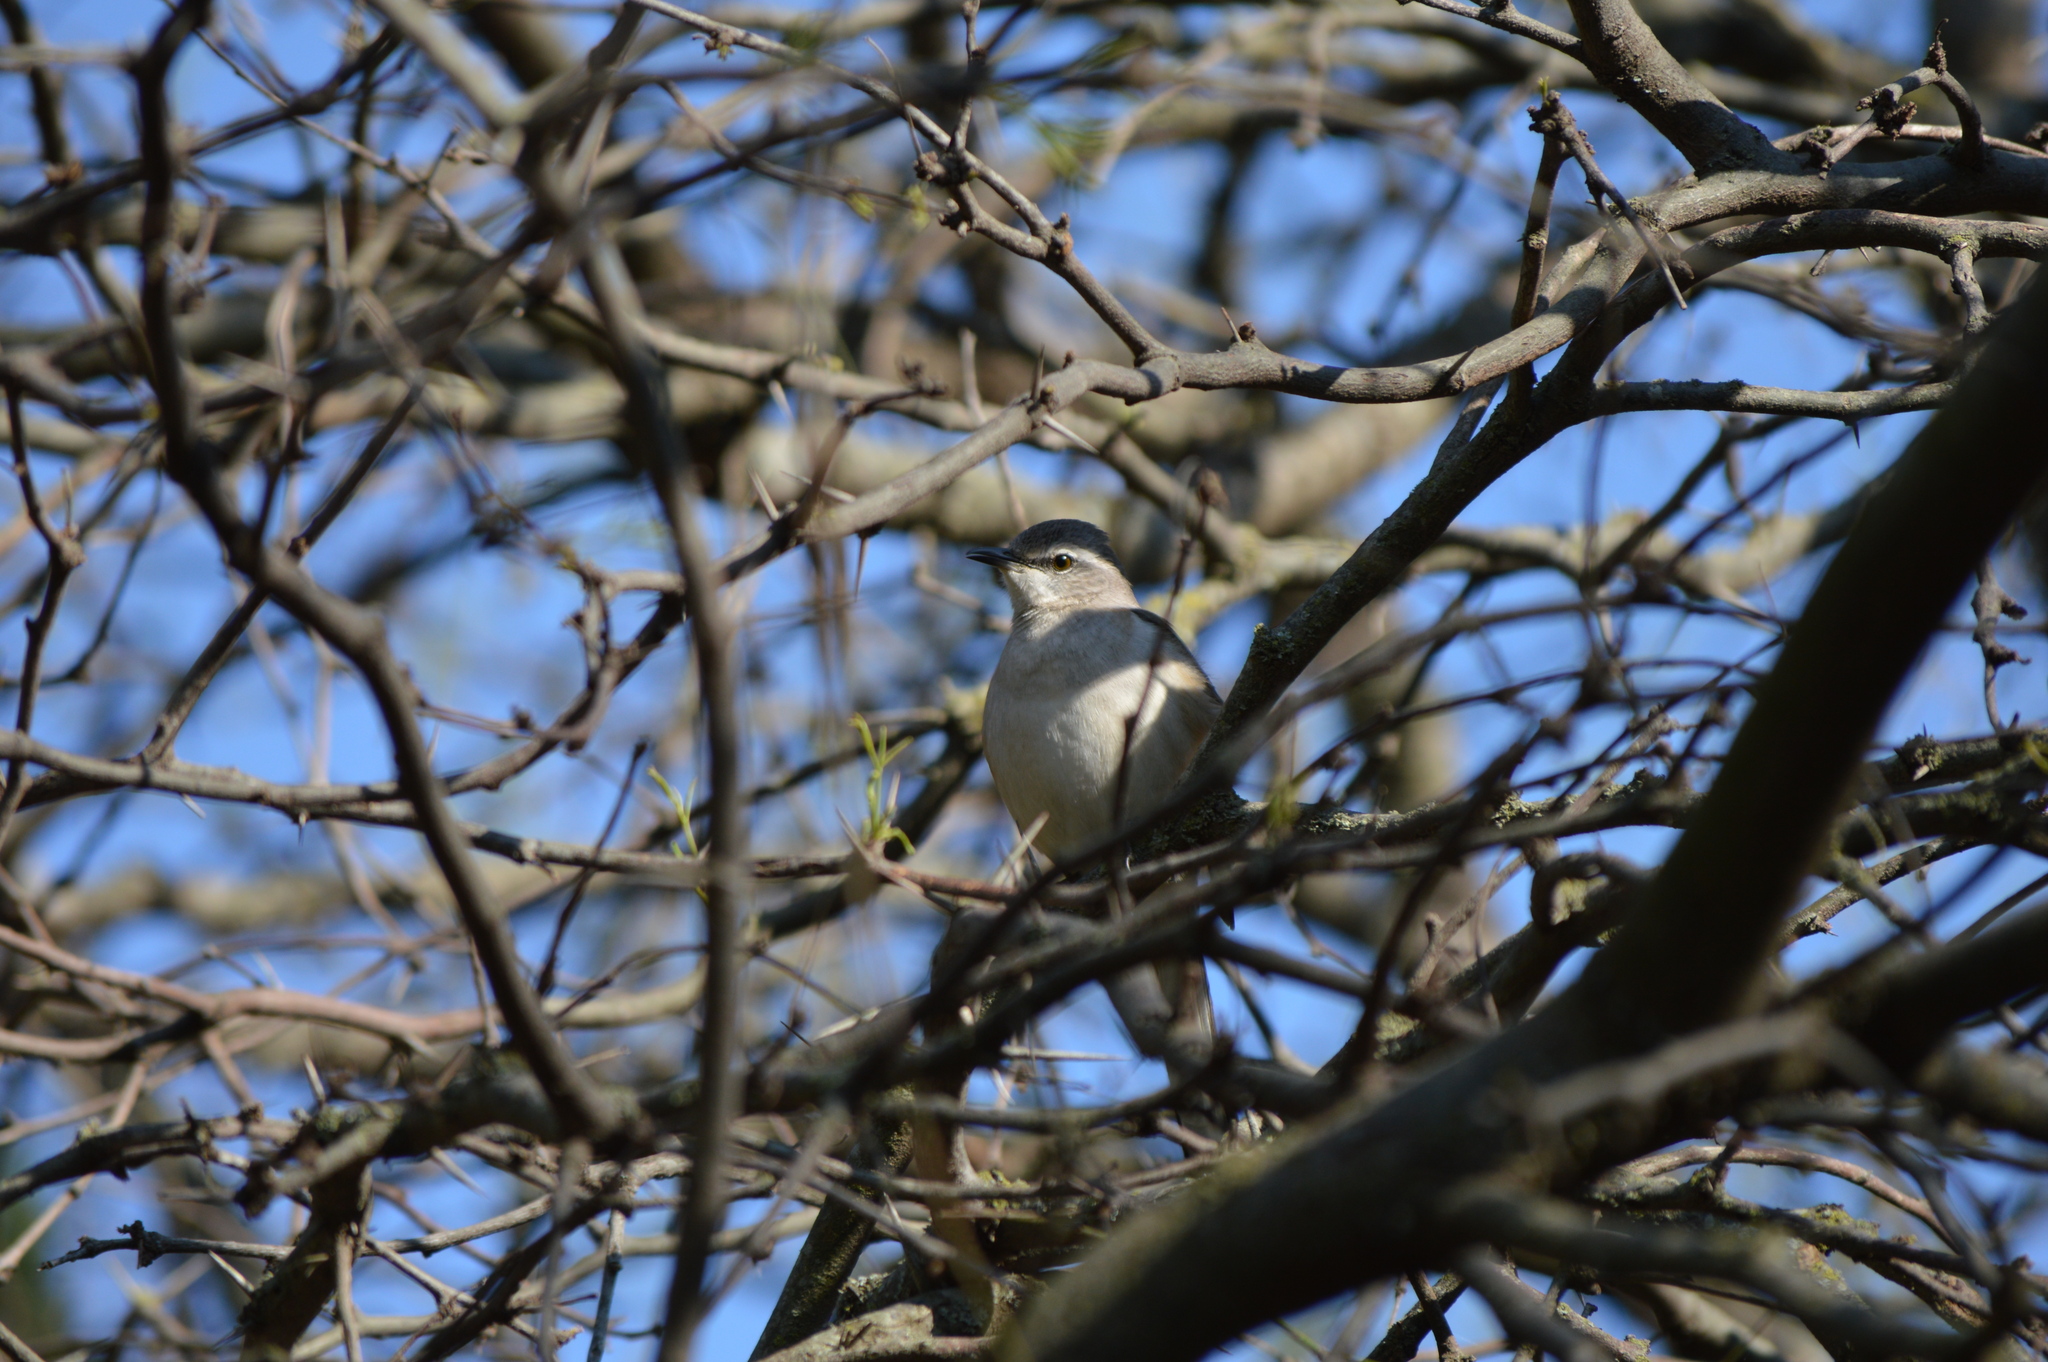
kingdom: Animalia
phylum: Chordata
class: Aves
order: Passeriformes
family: Mimidae
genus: Mimus
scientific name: Mimus triurus
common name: White-banded mockingbird
